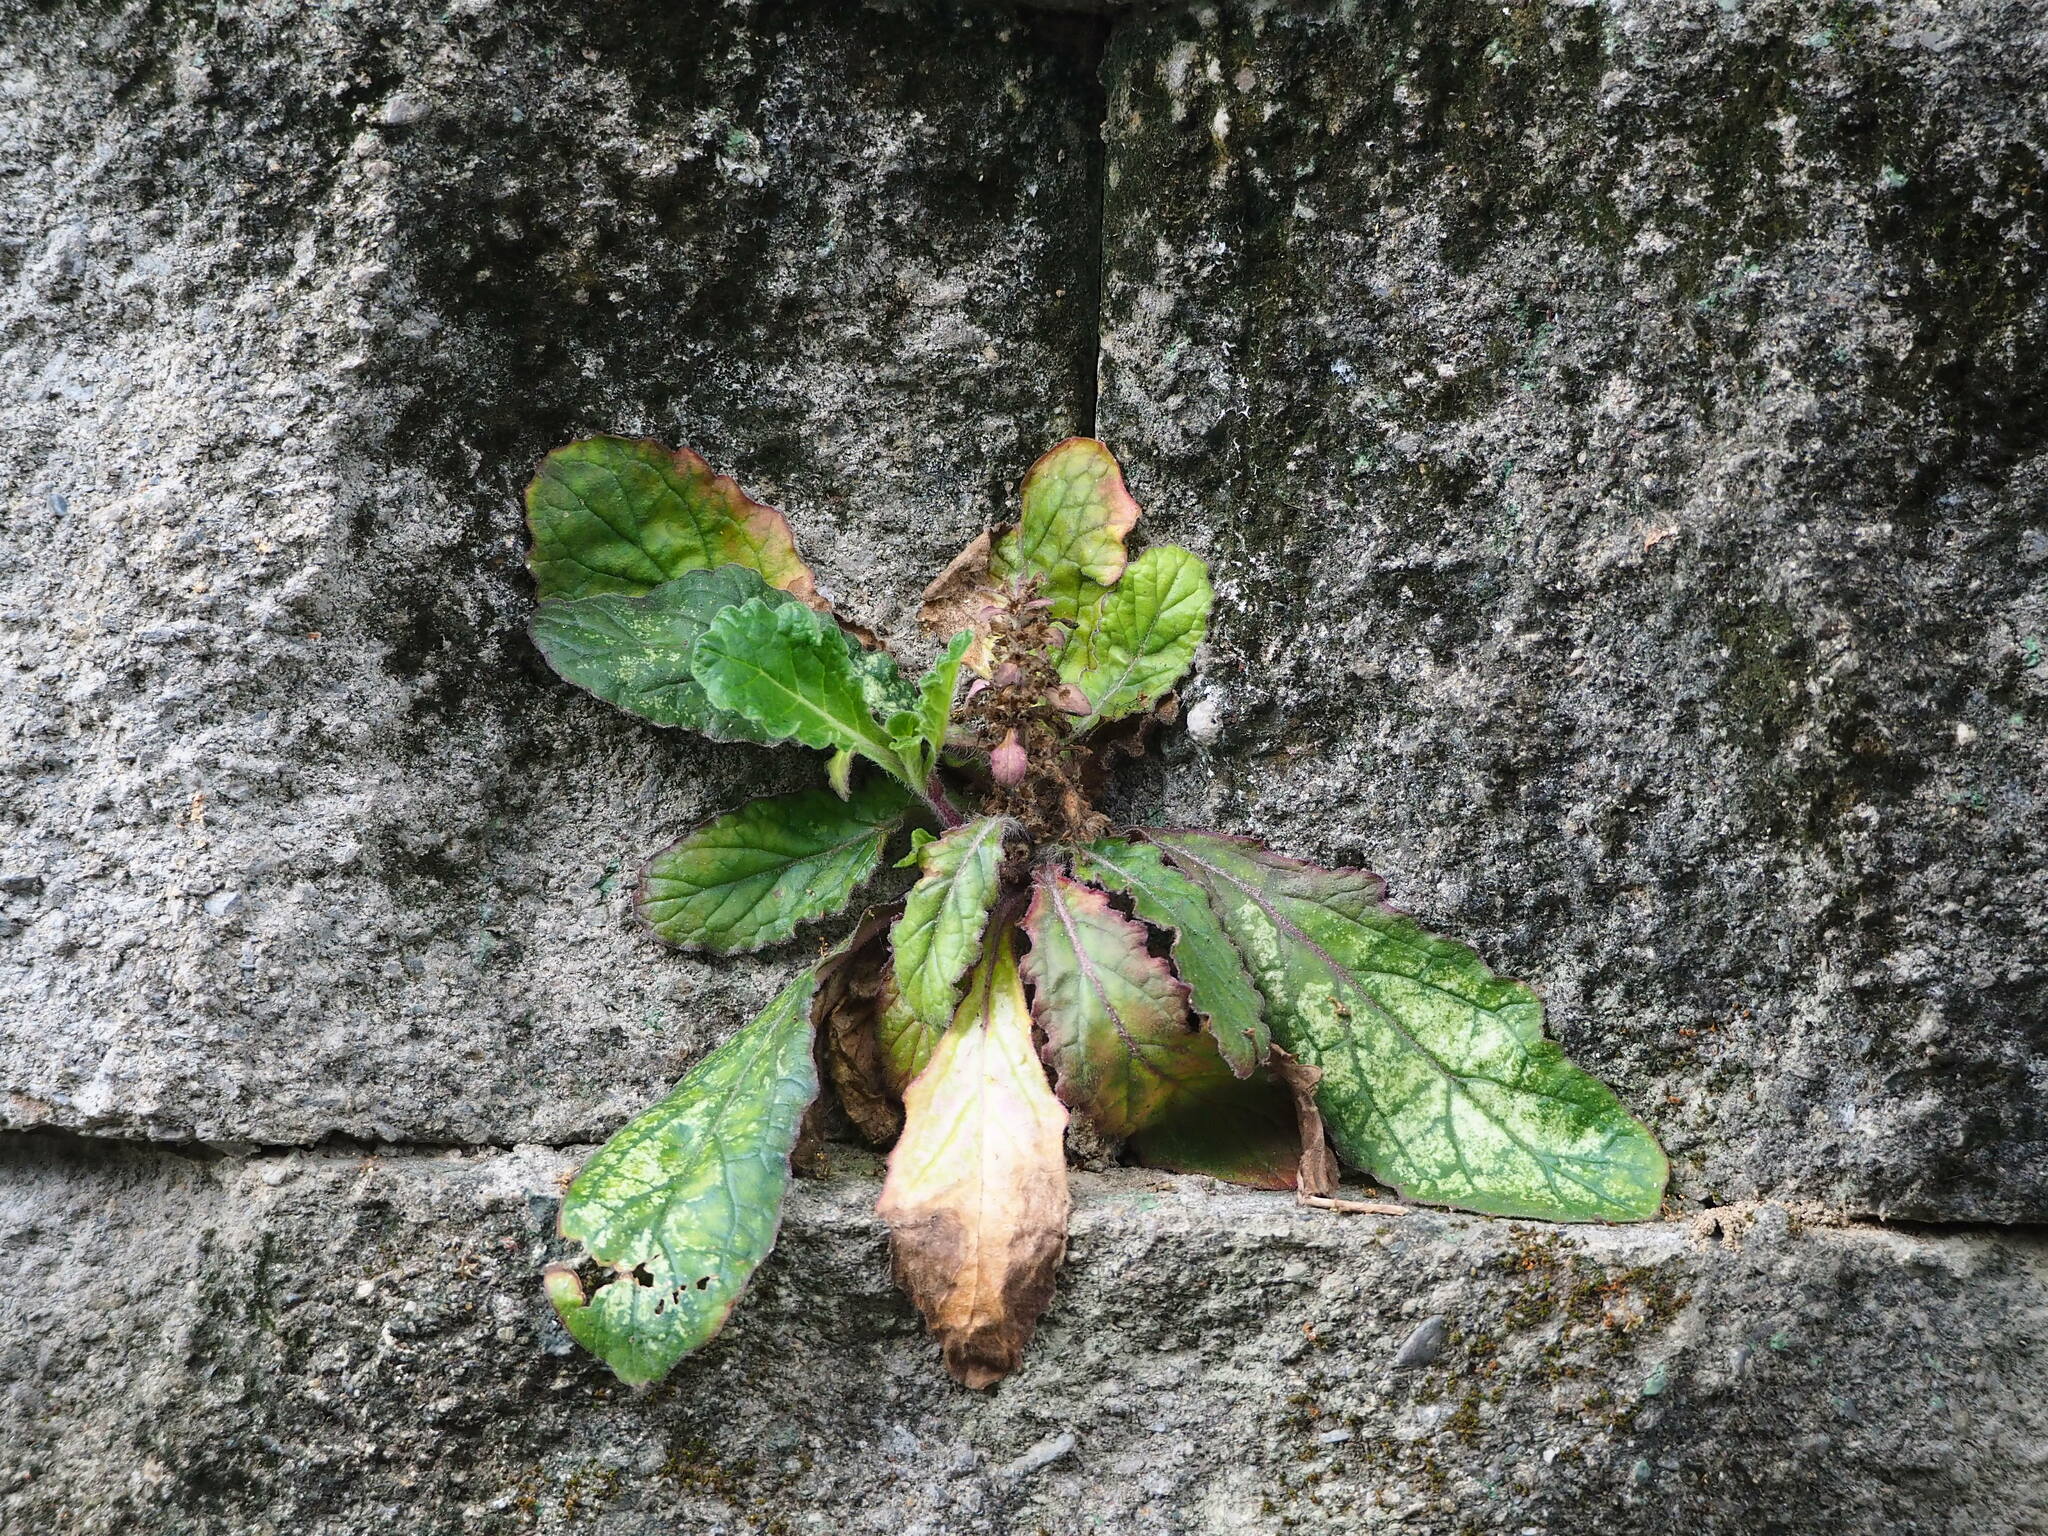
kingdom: Plantae
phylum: Tracheophyta
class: Magnoliopsida
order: Lamiales
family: Lamiaceae
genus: Ajuga
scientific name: Ajuga taiwanensis
